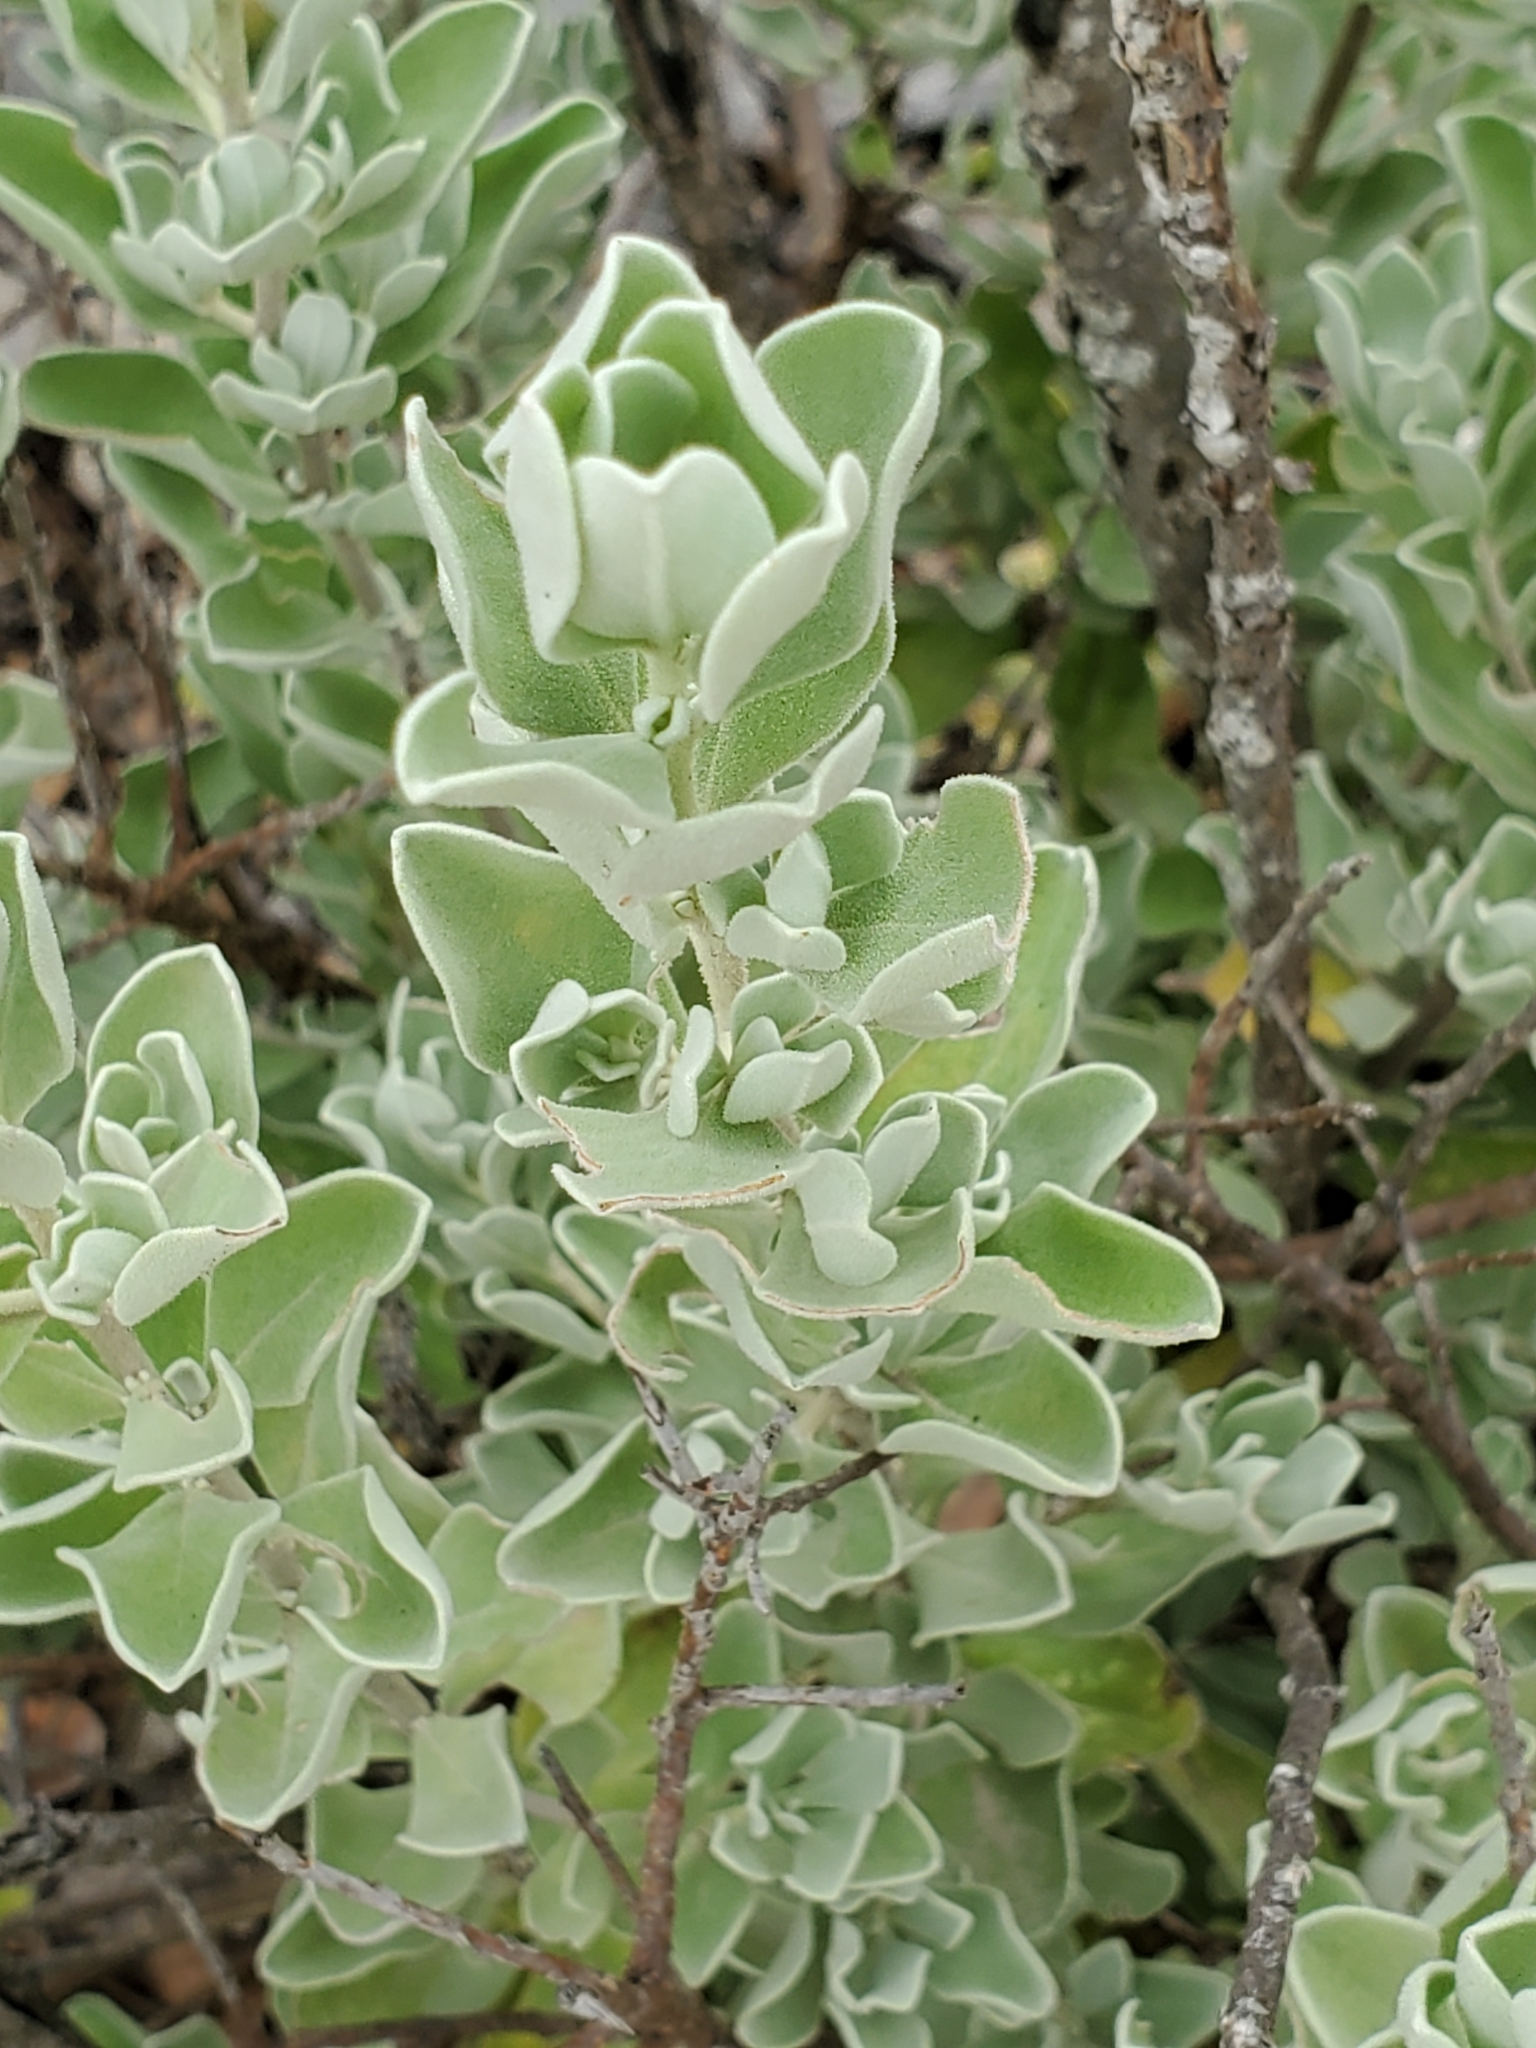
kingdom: Plantae
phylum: Tracheophyta
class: Magnoliopsida
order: Lamiales
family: Scrophulariaceae
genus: Leucophyllum
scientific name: Leucophyllum frutescens
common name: Texas silverleaf
